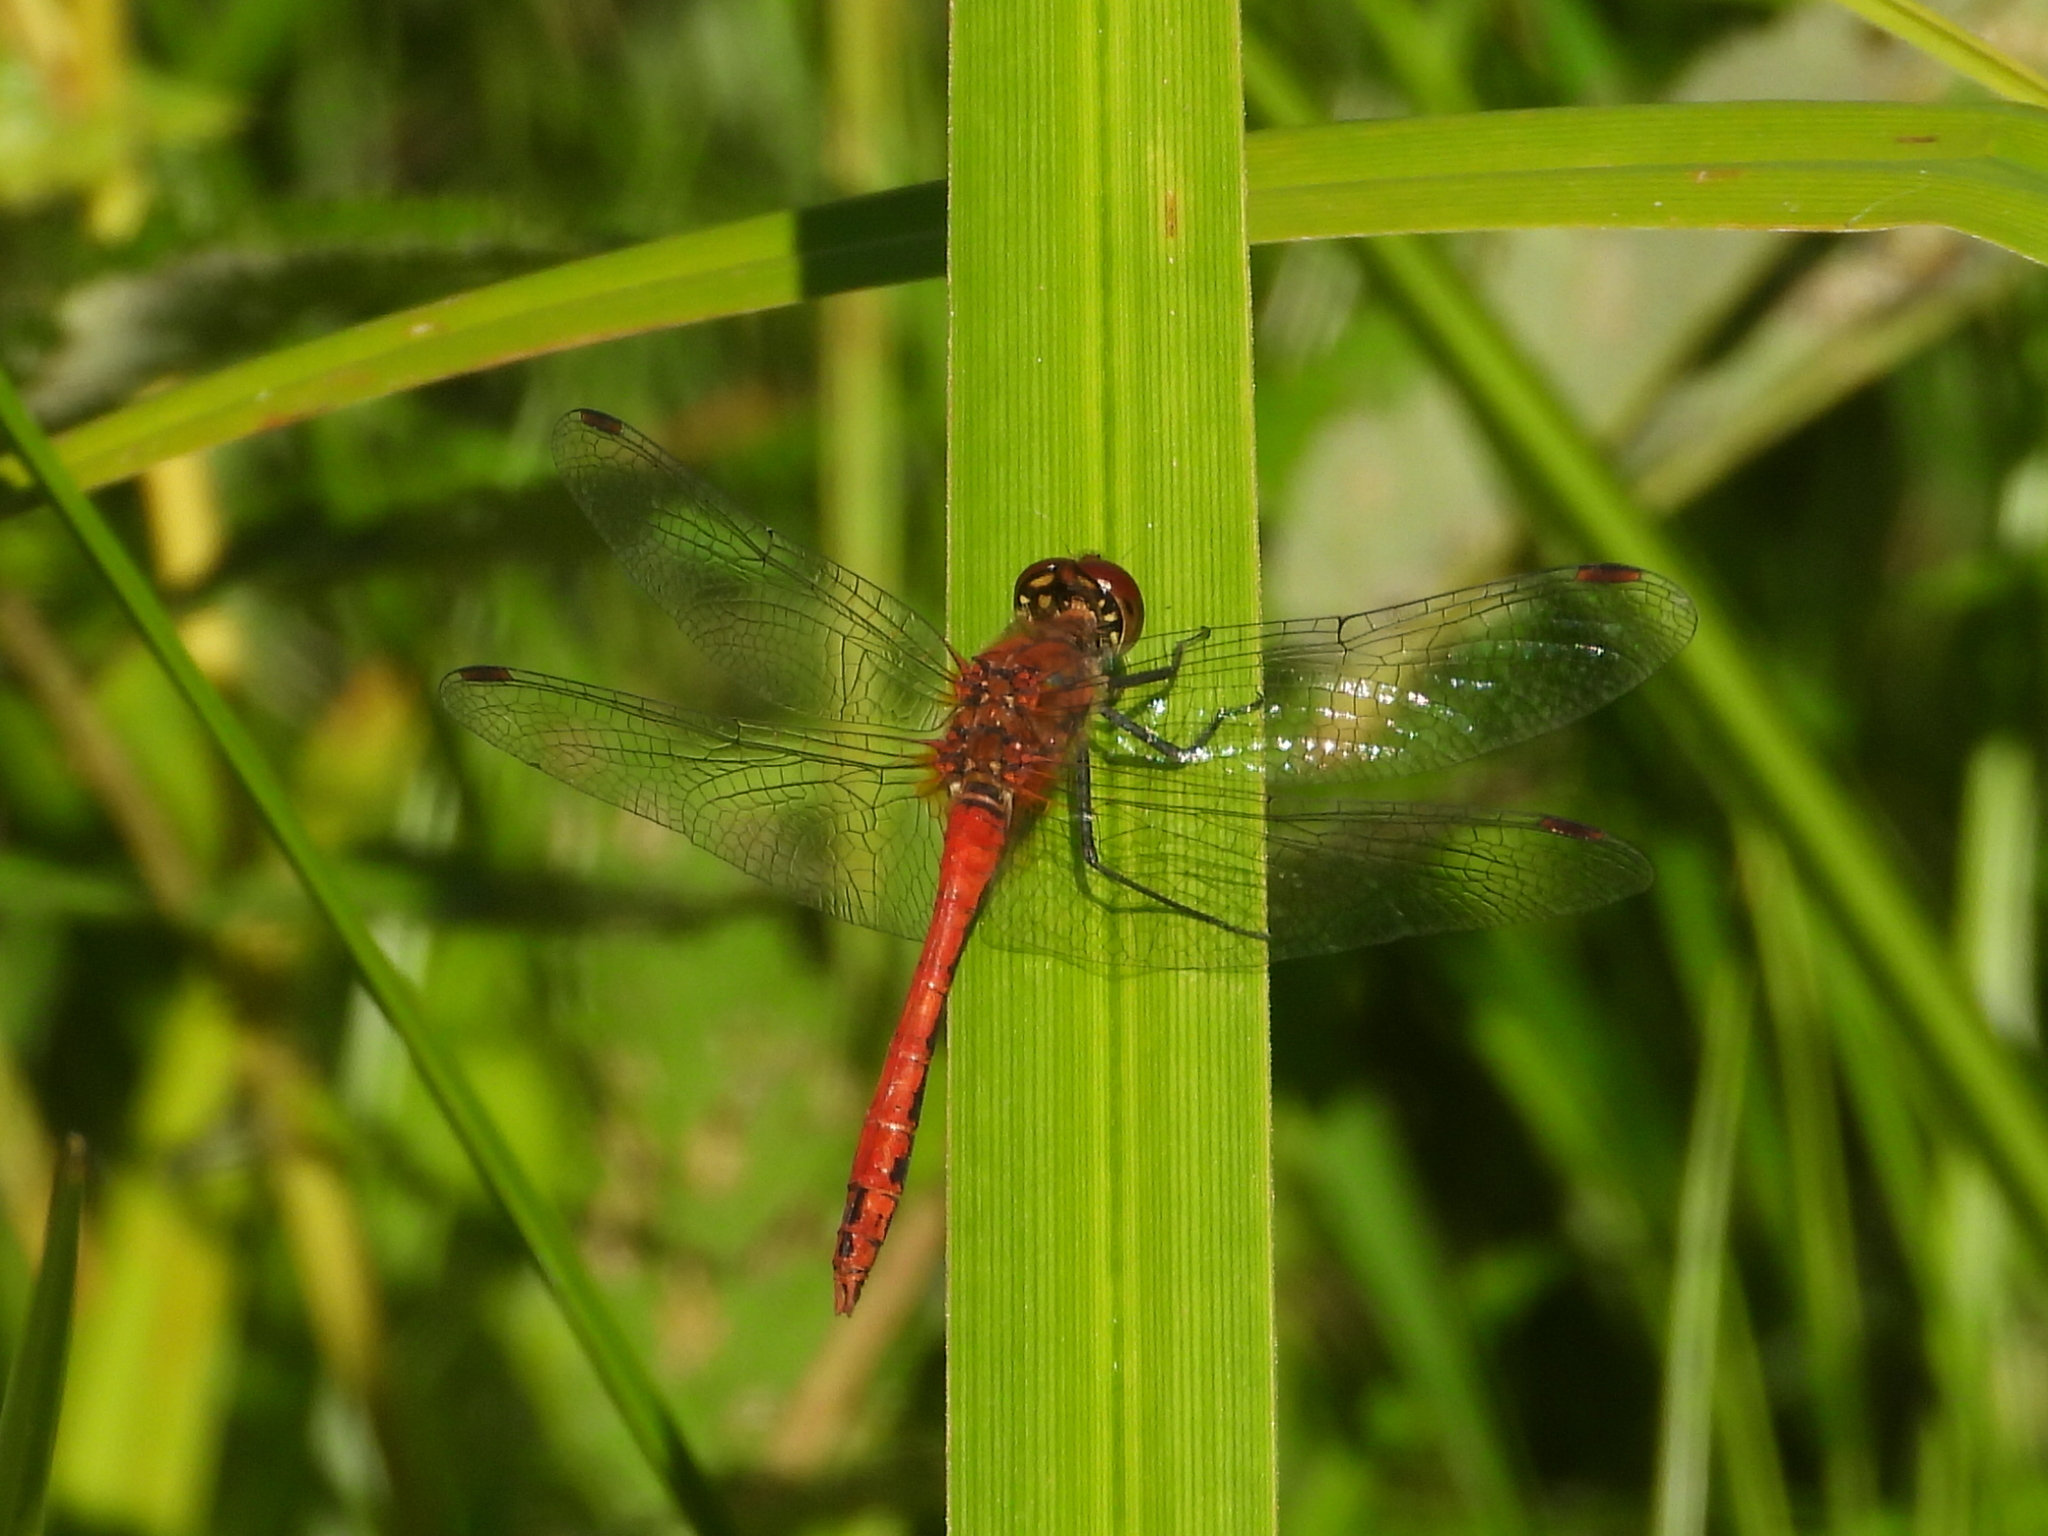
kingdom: Animalia
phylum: Arthropoda
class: Insecta
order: Odonata
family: Libellulidae
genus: Sympetrum
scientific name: Sympetrum sanguineum
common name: Ruddy darter
